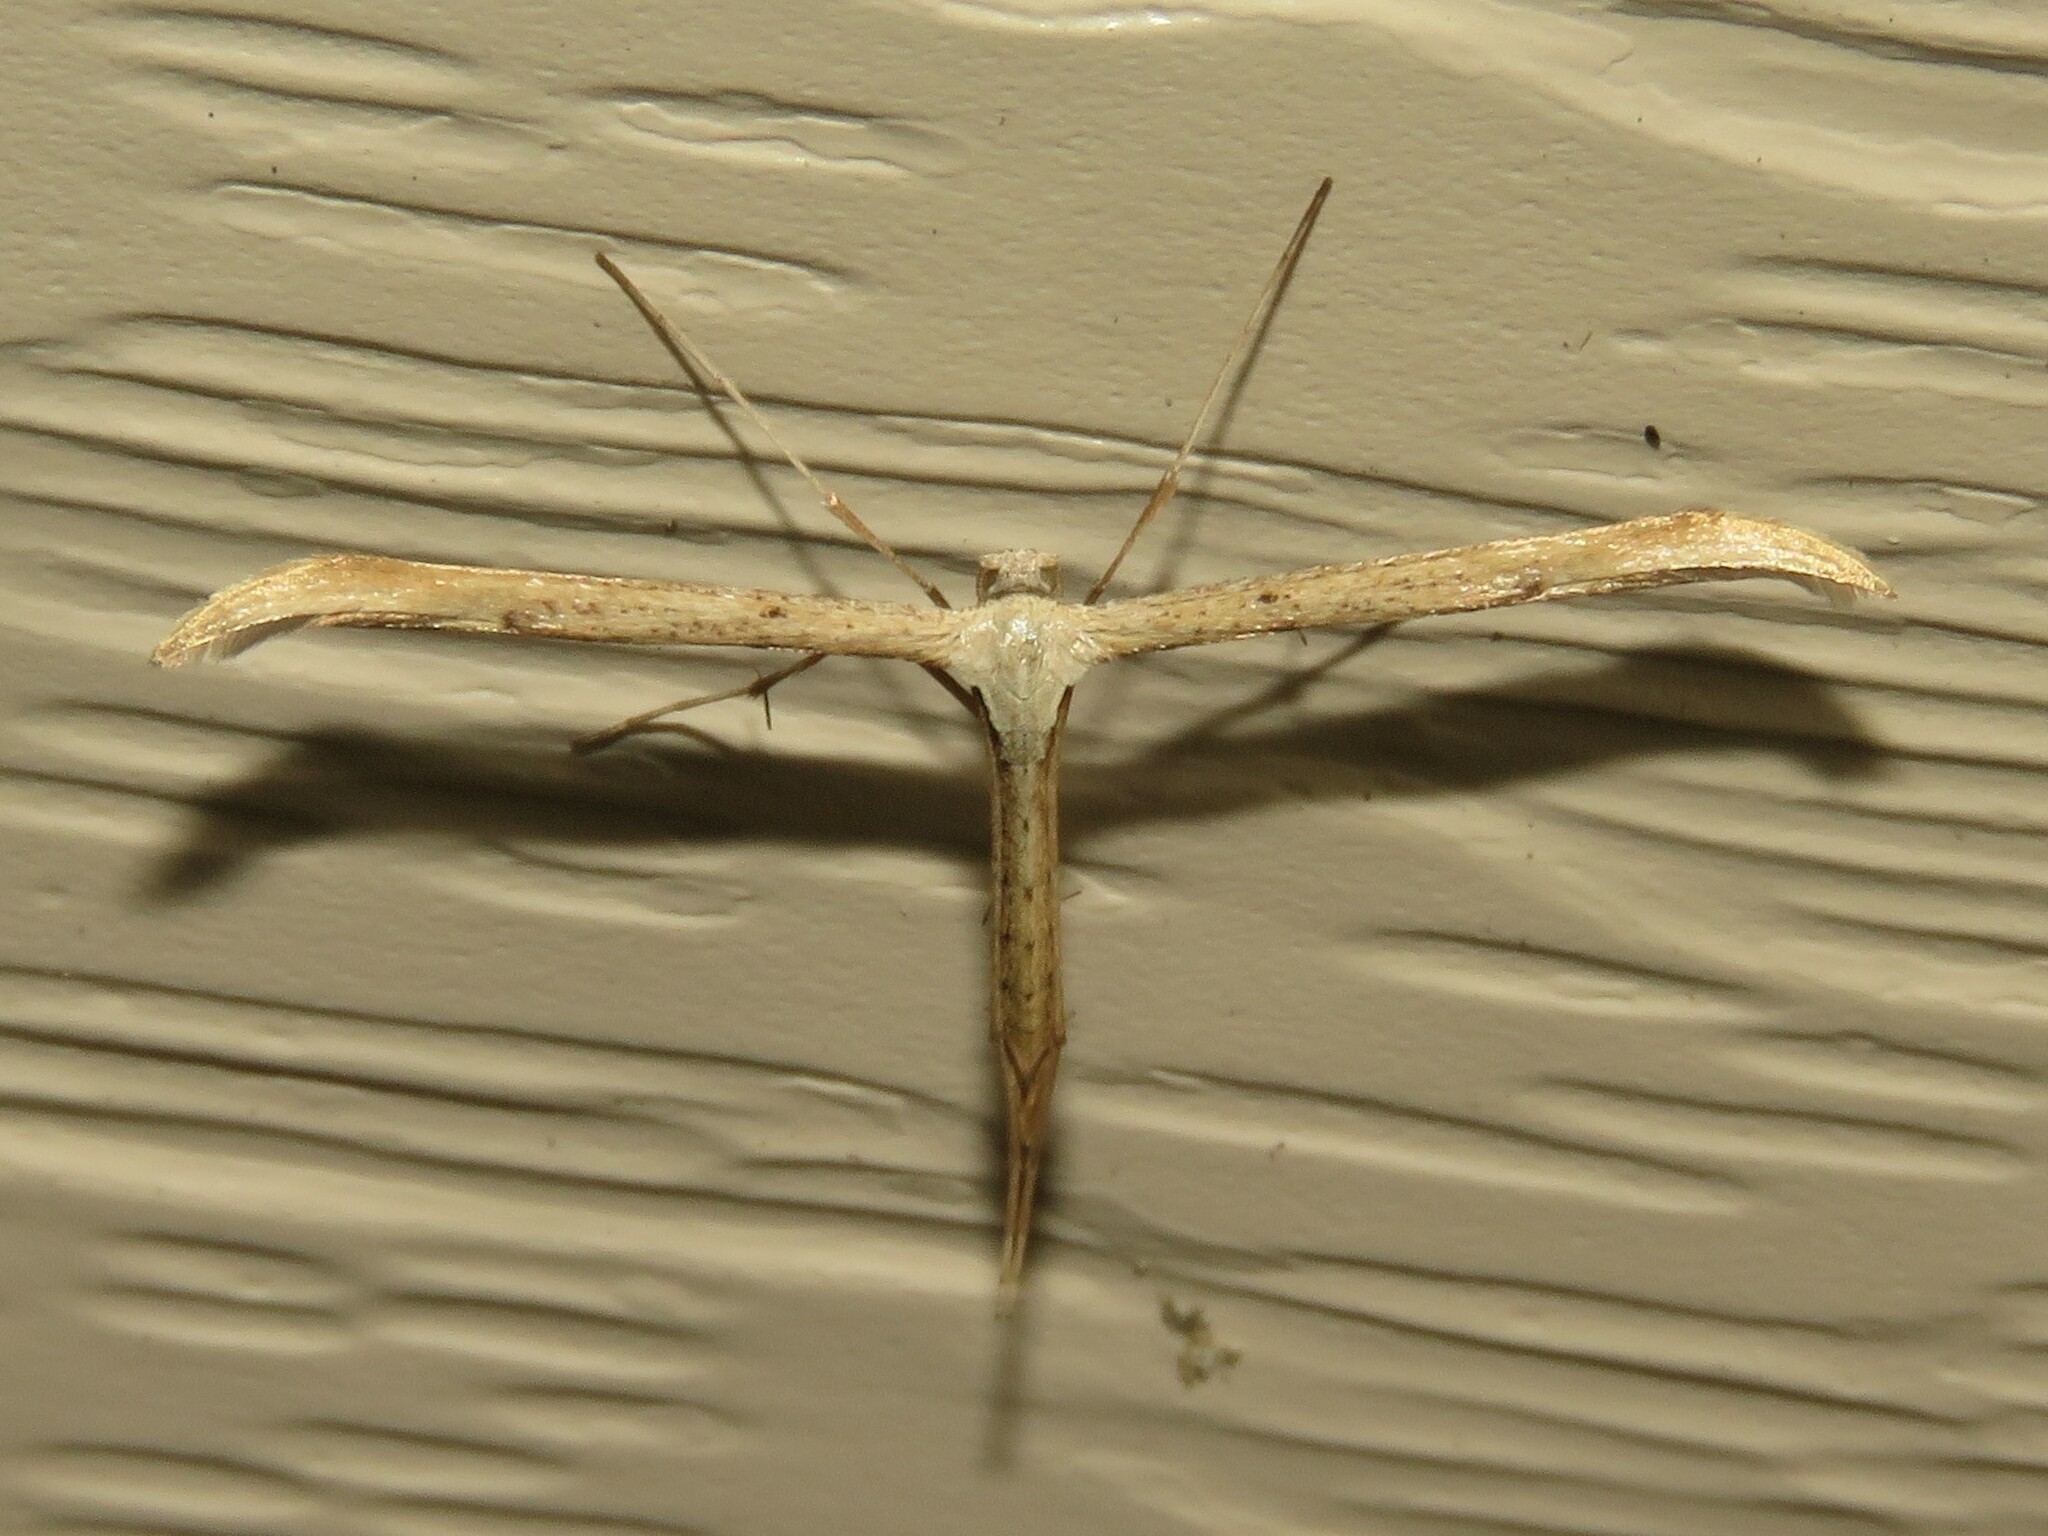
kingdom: Animalia
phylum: Arthropoda
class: Insecta
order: Lepidoptera
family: Pterophoridae
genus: Emmelina
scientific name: Emmelina monodactyla
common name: Common plume
